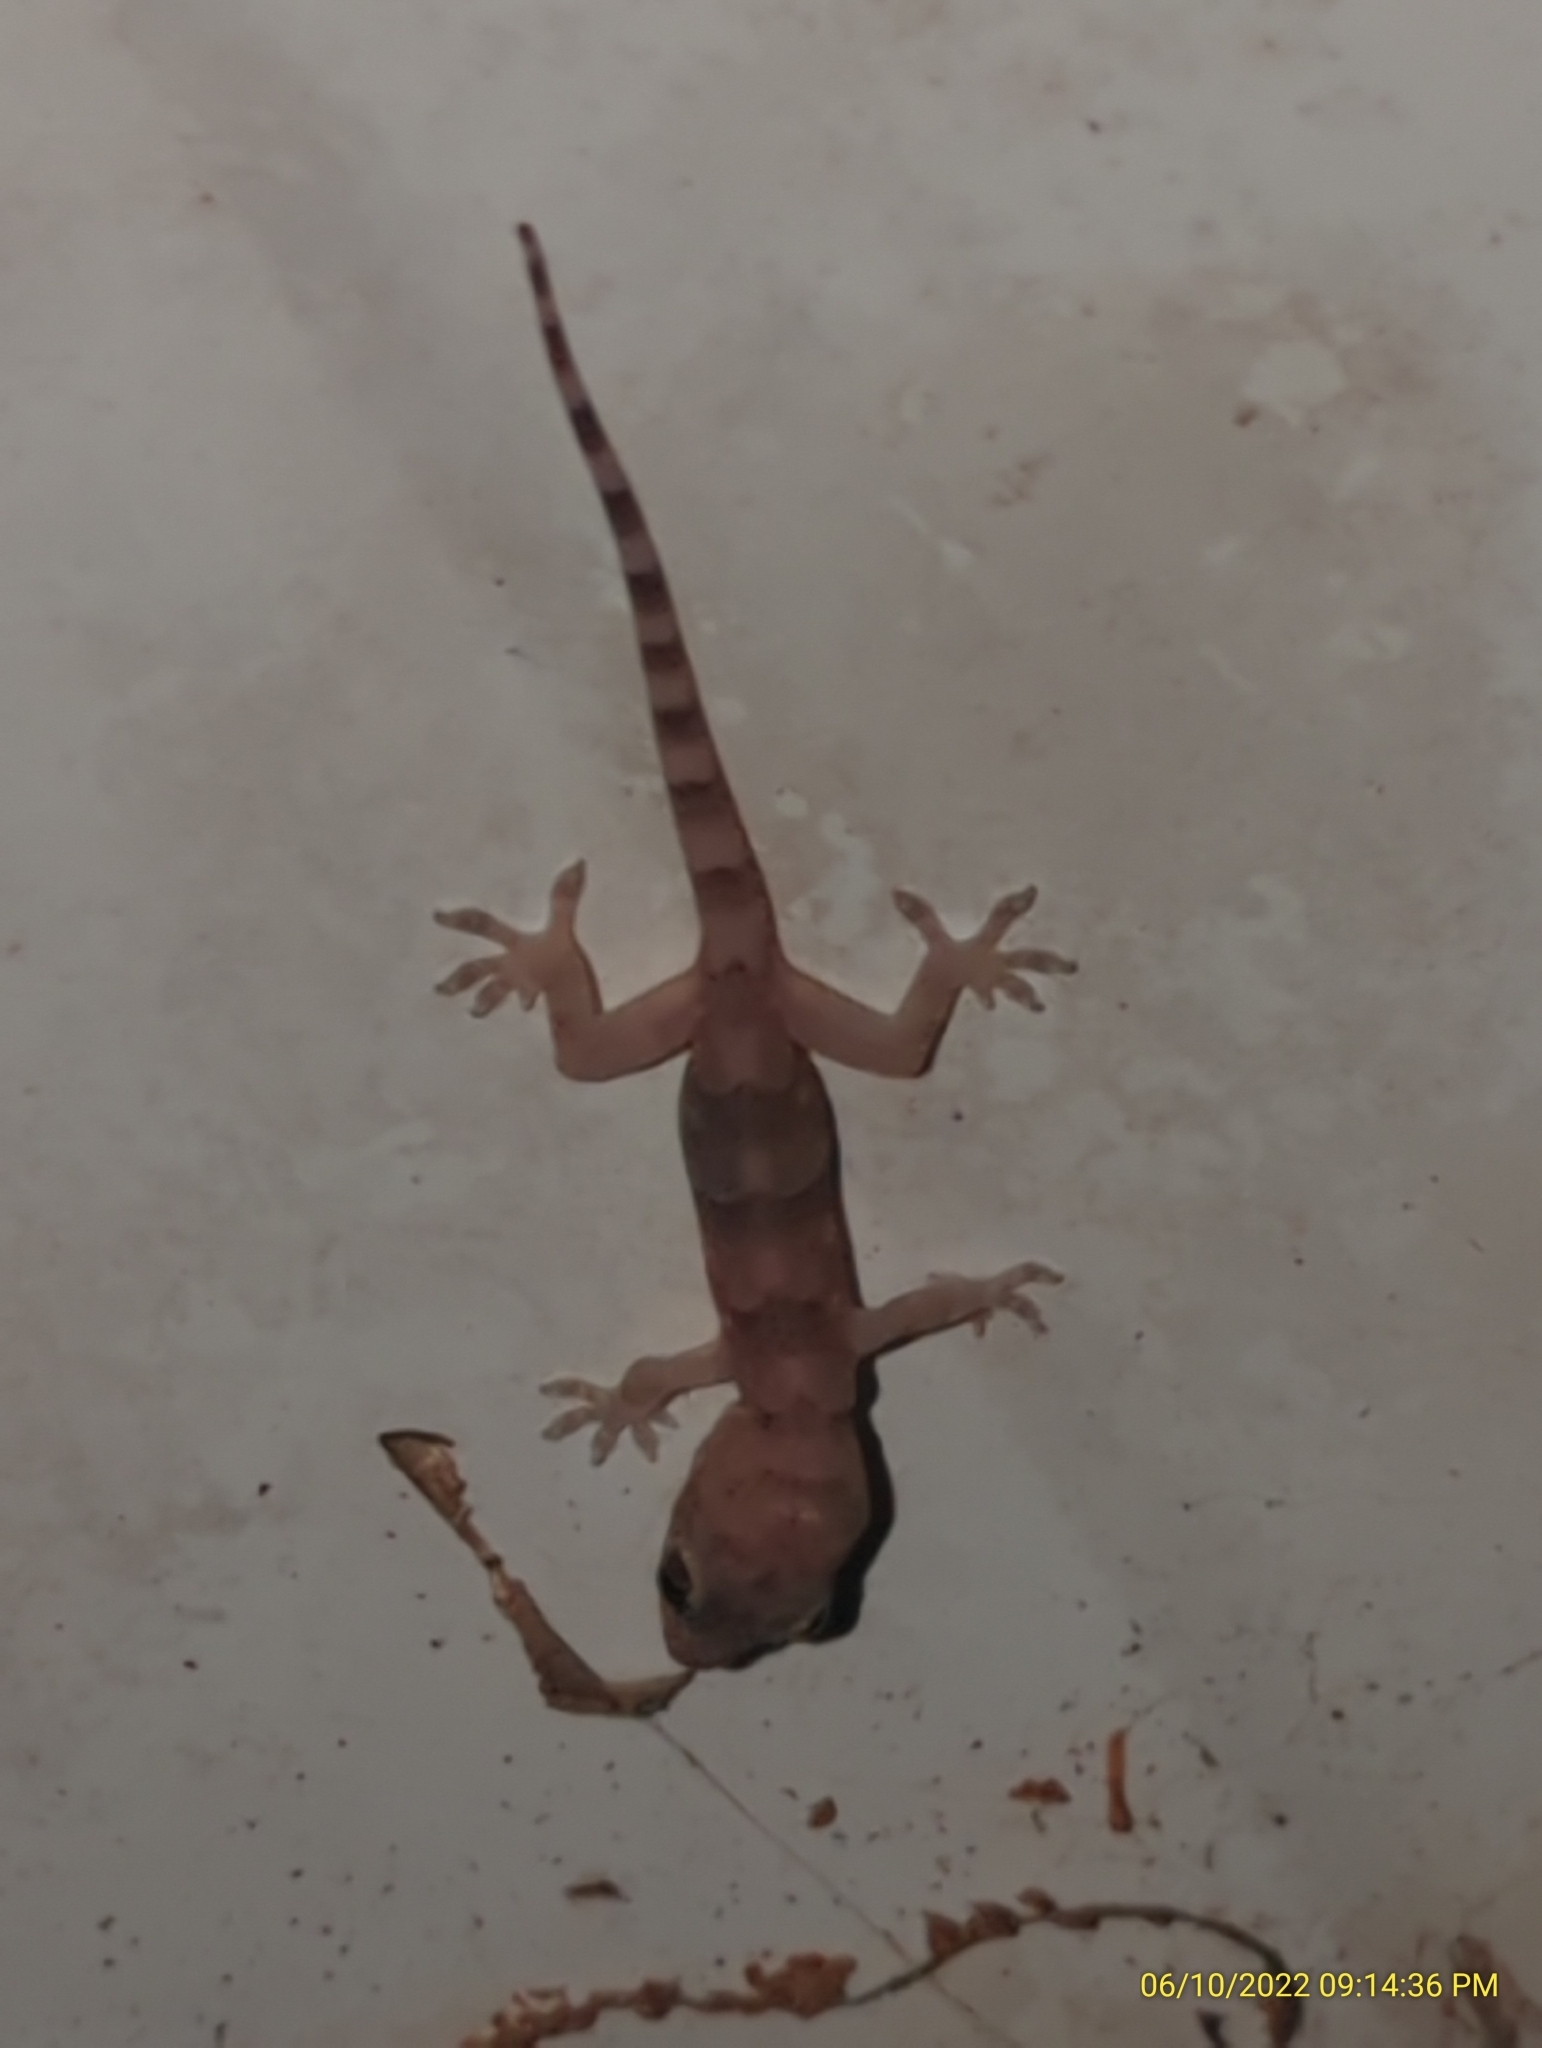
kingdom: Animalia
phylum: Chordata
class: Squamata
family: Gekkonidae
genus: Hemidactylus
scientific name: Hemidactylus mabouia
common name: House gecko
